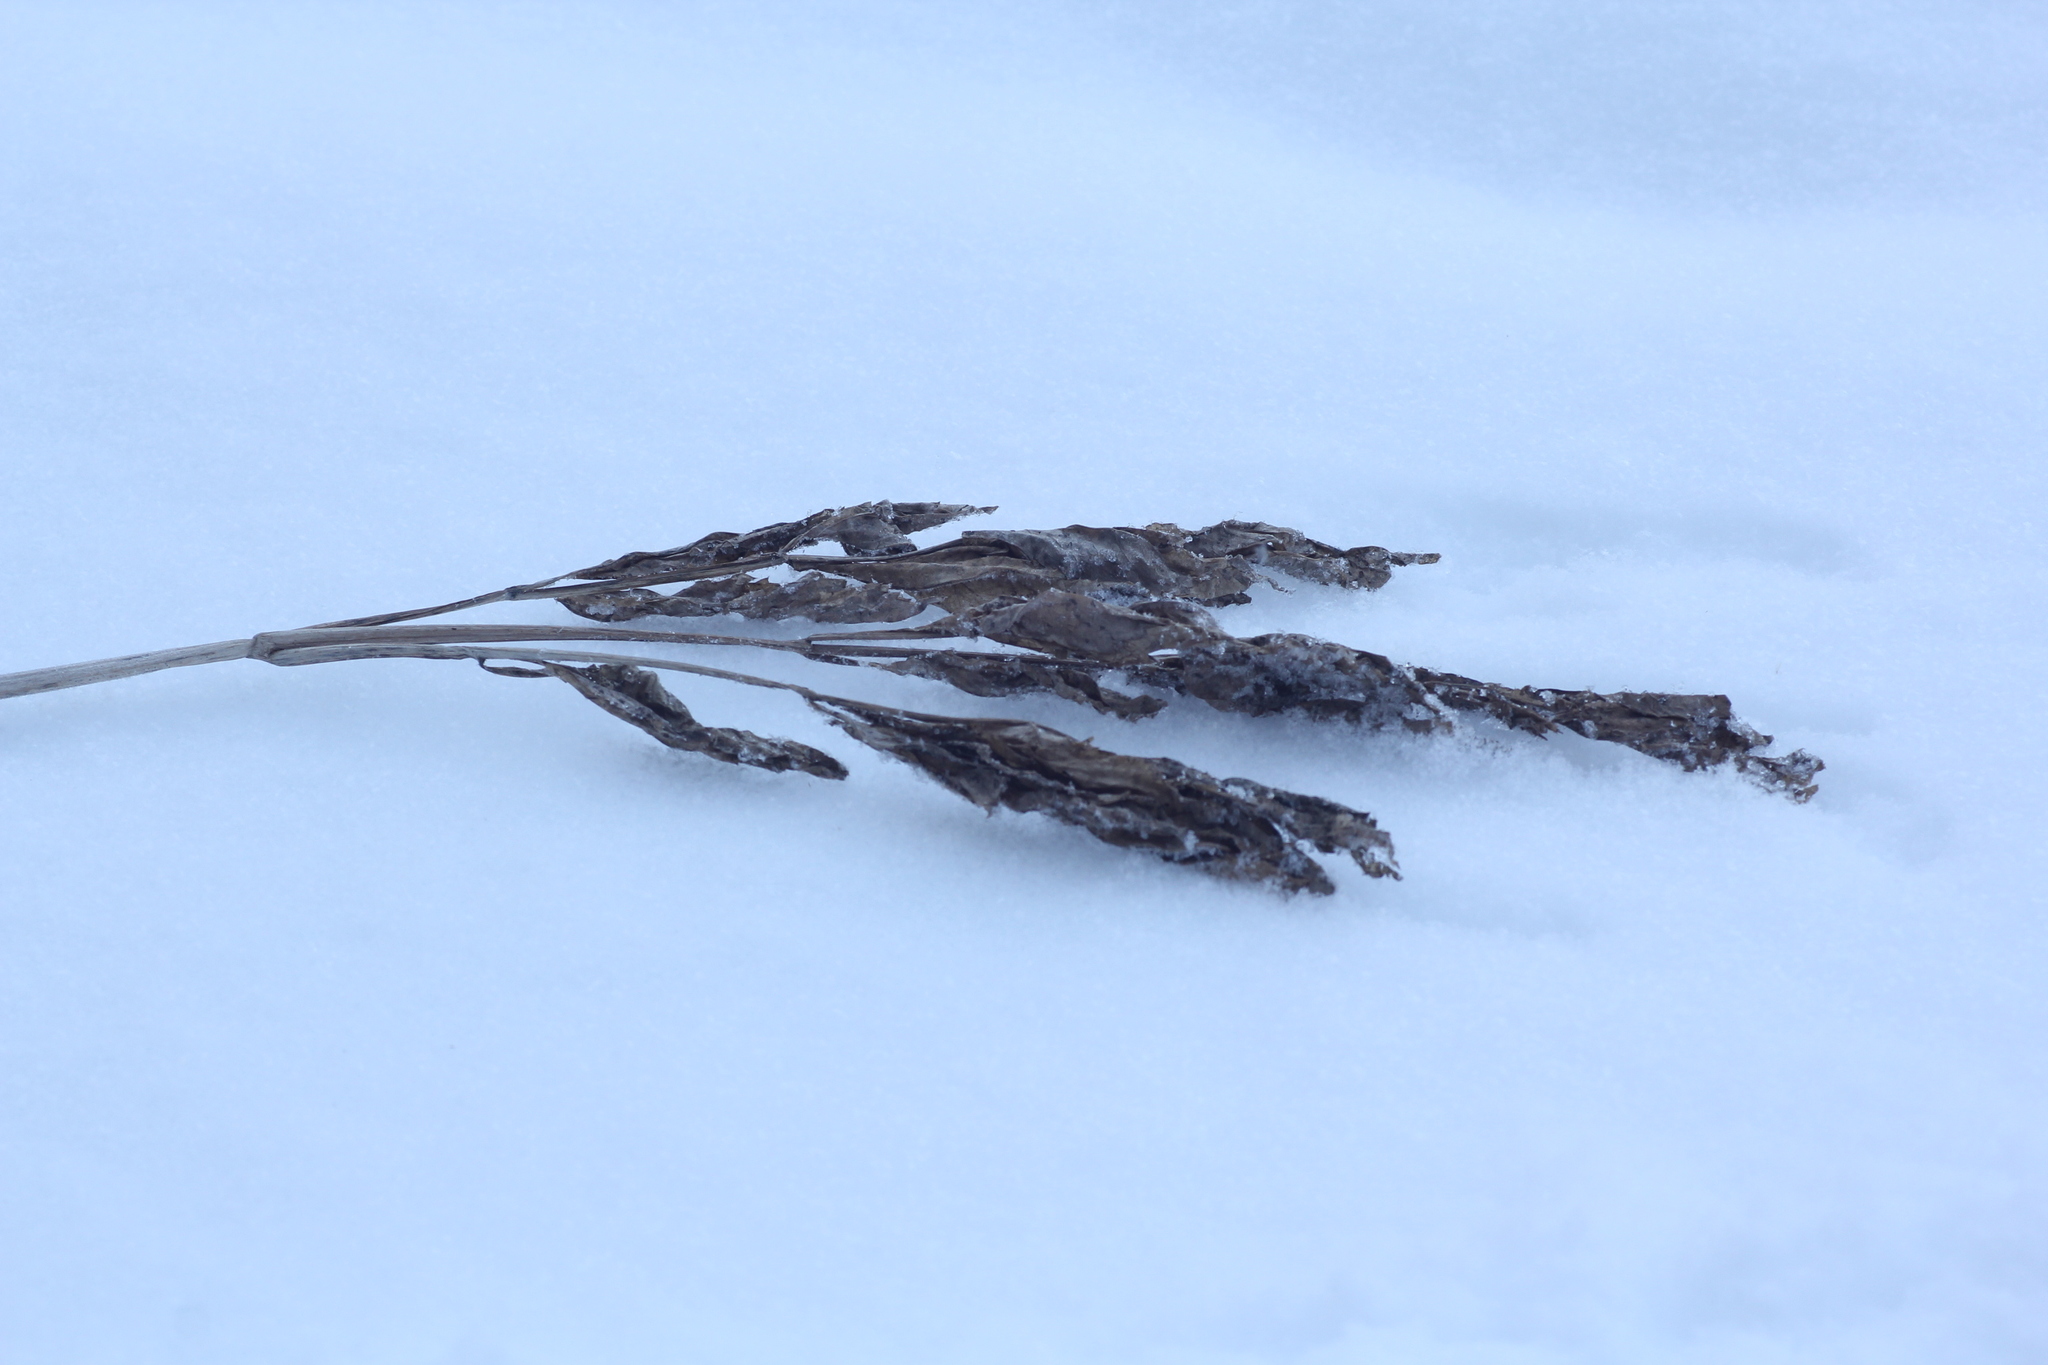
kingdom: Plantae
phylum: Tracheophyta
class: Magnoliopsida
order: Apiales
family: Apiaceae
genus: Angelica
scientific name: Angelica decurrens
